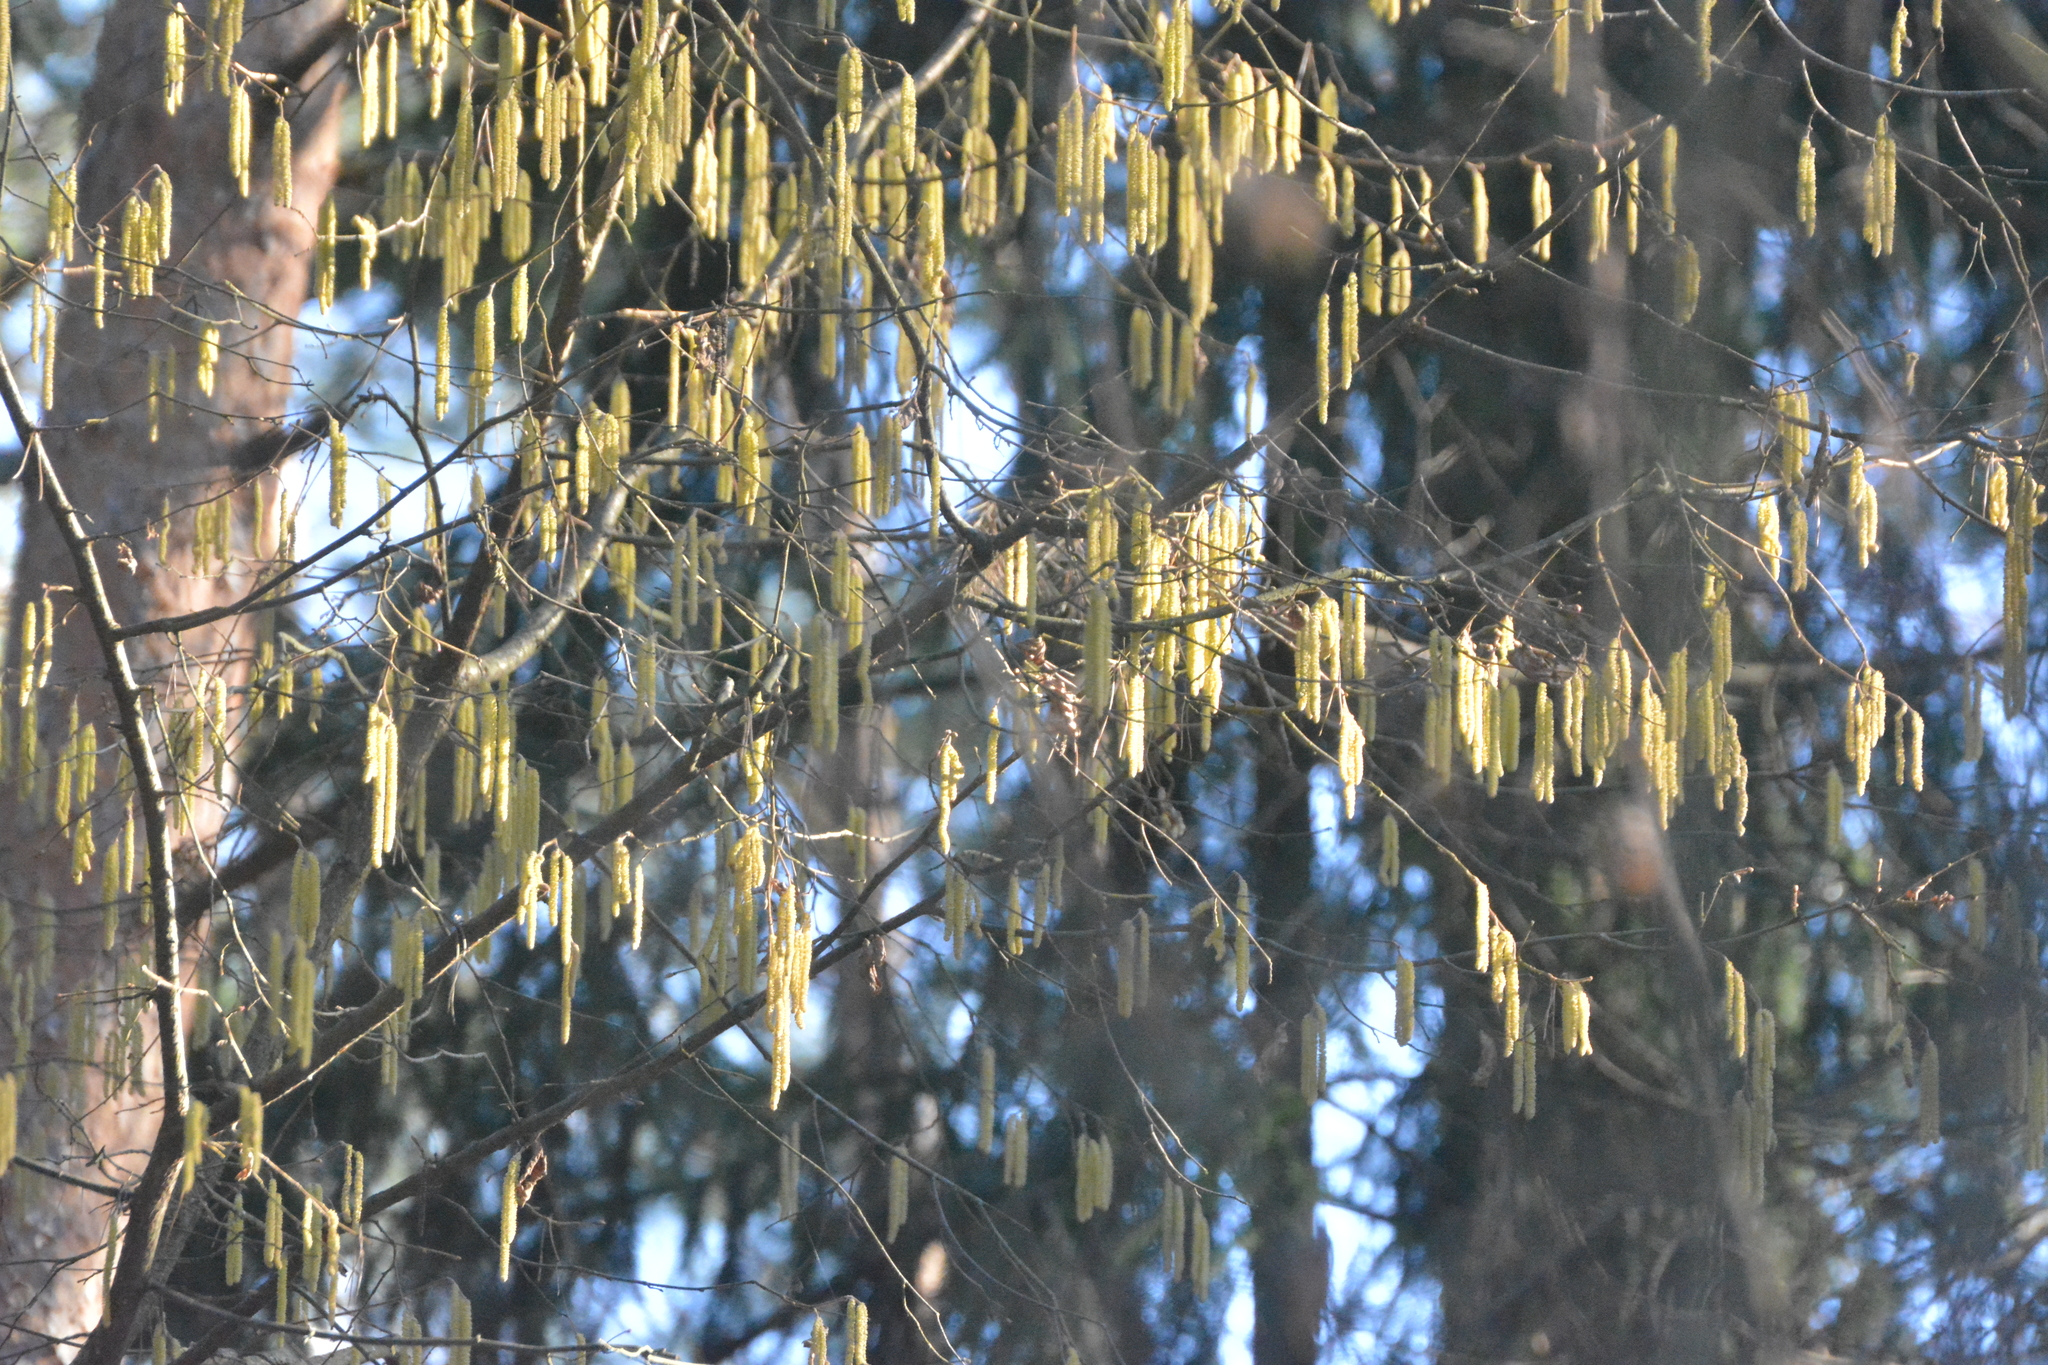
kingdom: Plantae
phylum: Tracheophyta
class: Magnoliopsida
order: Fagales
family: Betulaceae
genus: Corylus
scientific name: Corylus avellana
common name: European hazel
